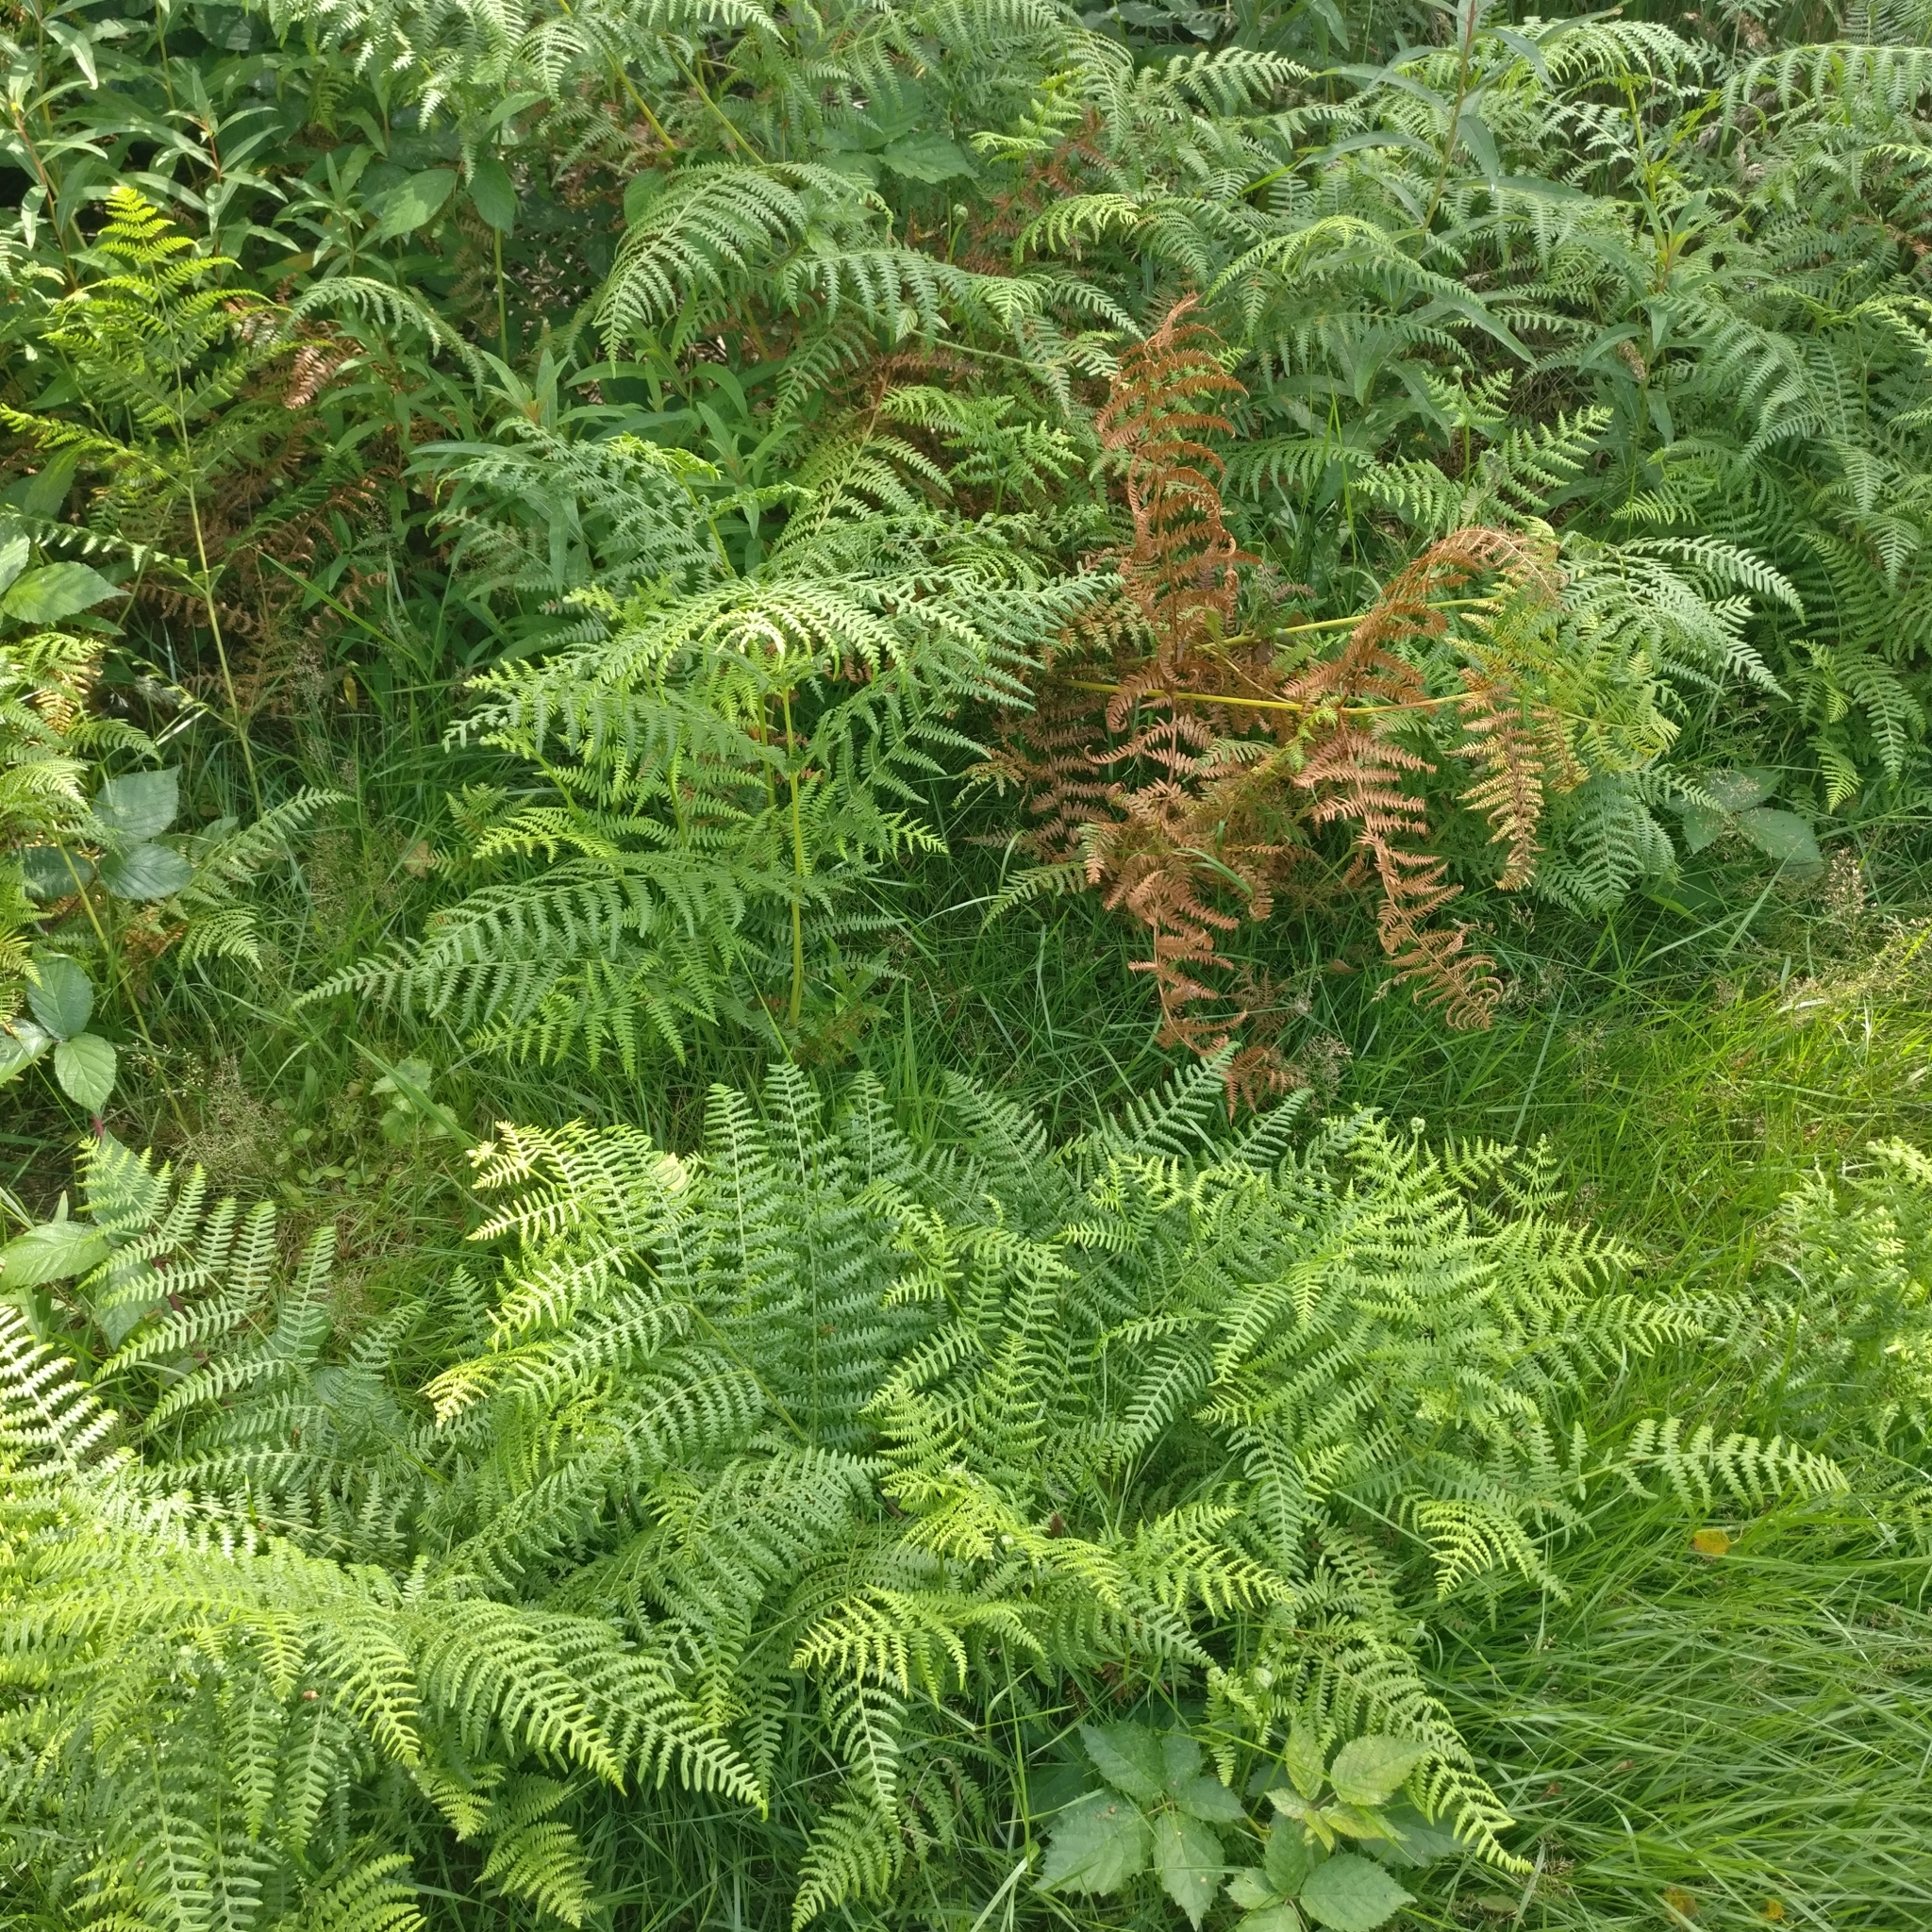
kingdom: Plantae
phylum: Tracheophyta
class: Polypodiopsida
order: Polypodiales
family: Dennstaedtiaceae
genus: Pteridium
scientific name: Pteridium aquilinum
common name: Bracken
